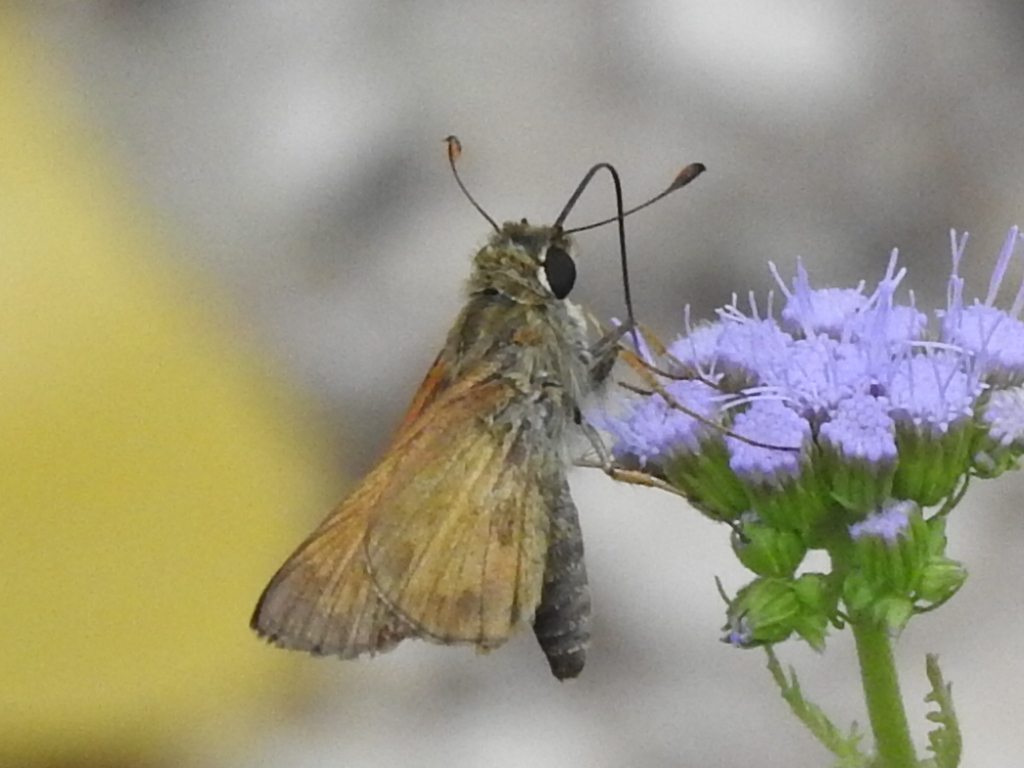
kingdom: Animalia
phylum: Arthropoda
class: Insecta
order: Lepidoptera
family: Hesperiidae
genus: Atalopedes
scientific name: Atalopedes
